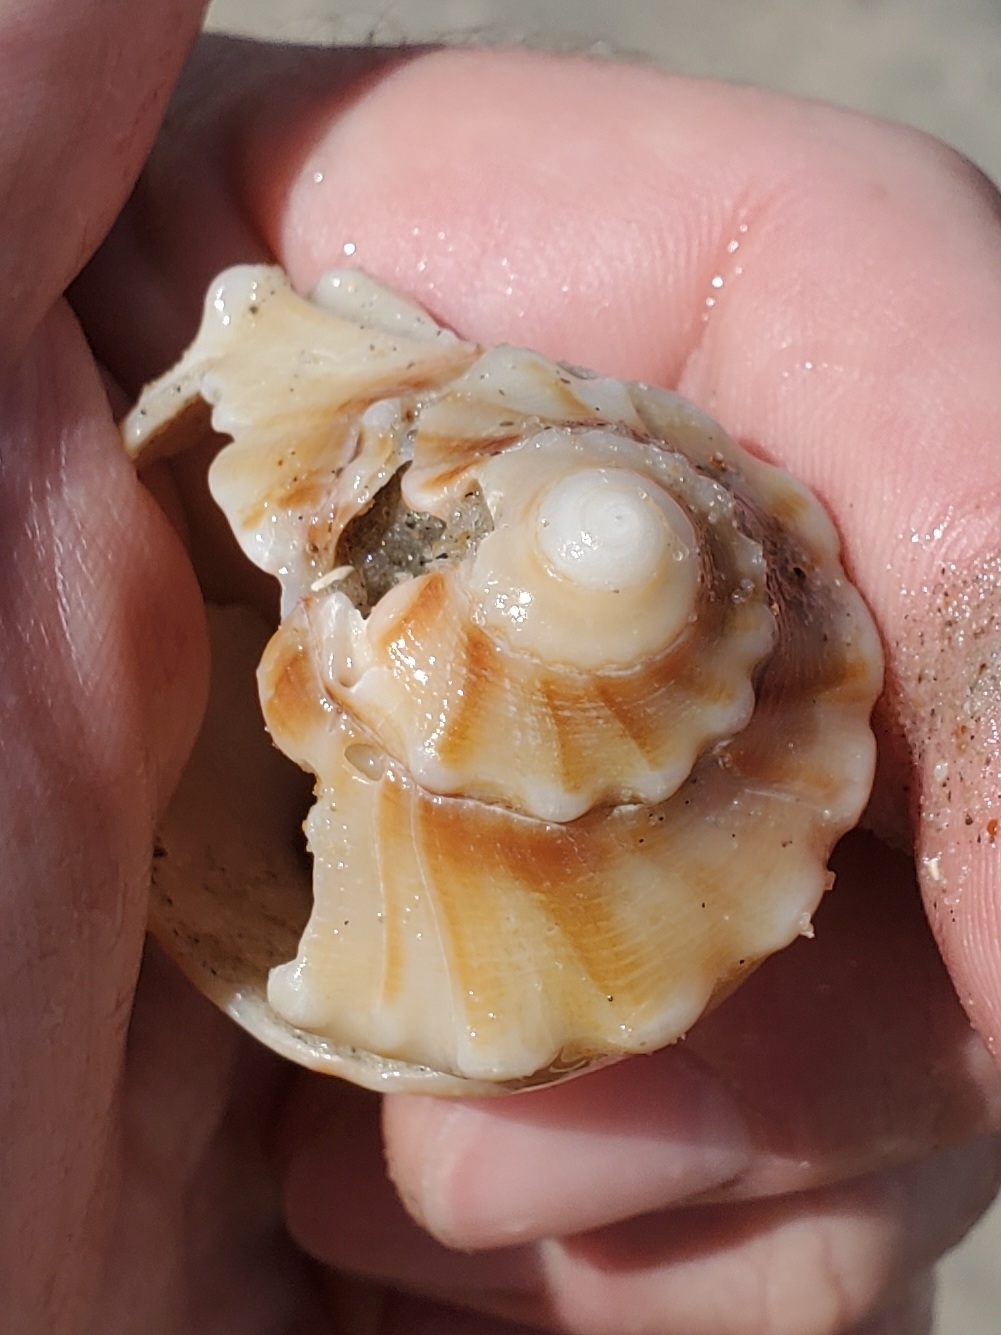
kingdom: Animalia
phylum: Mollusca
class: Gastropoda
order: Neogastropoda
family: Busyconidae
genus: Busycon
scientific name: Busycon carica
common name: Knobbed whelk
